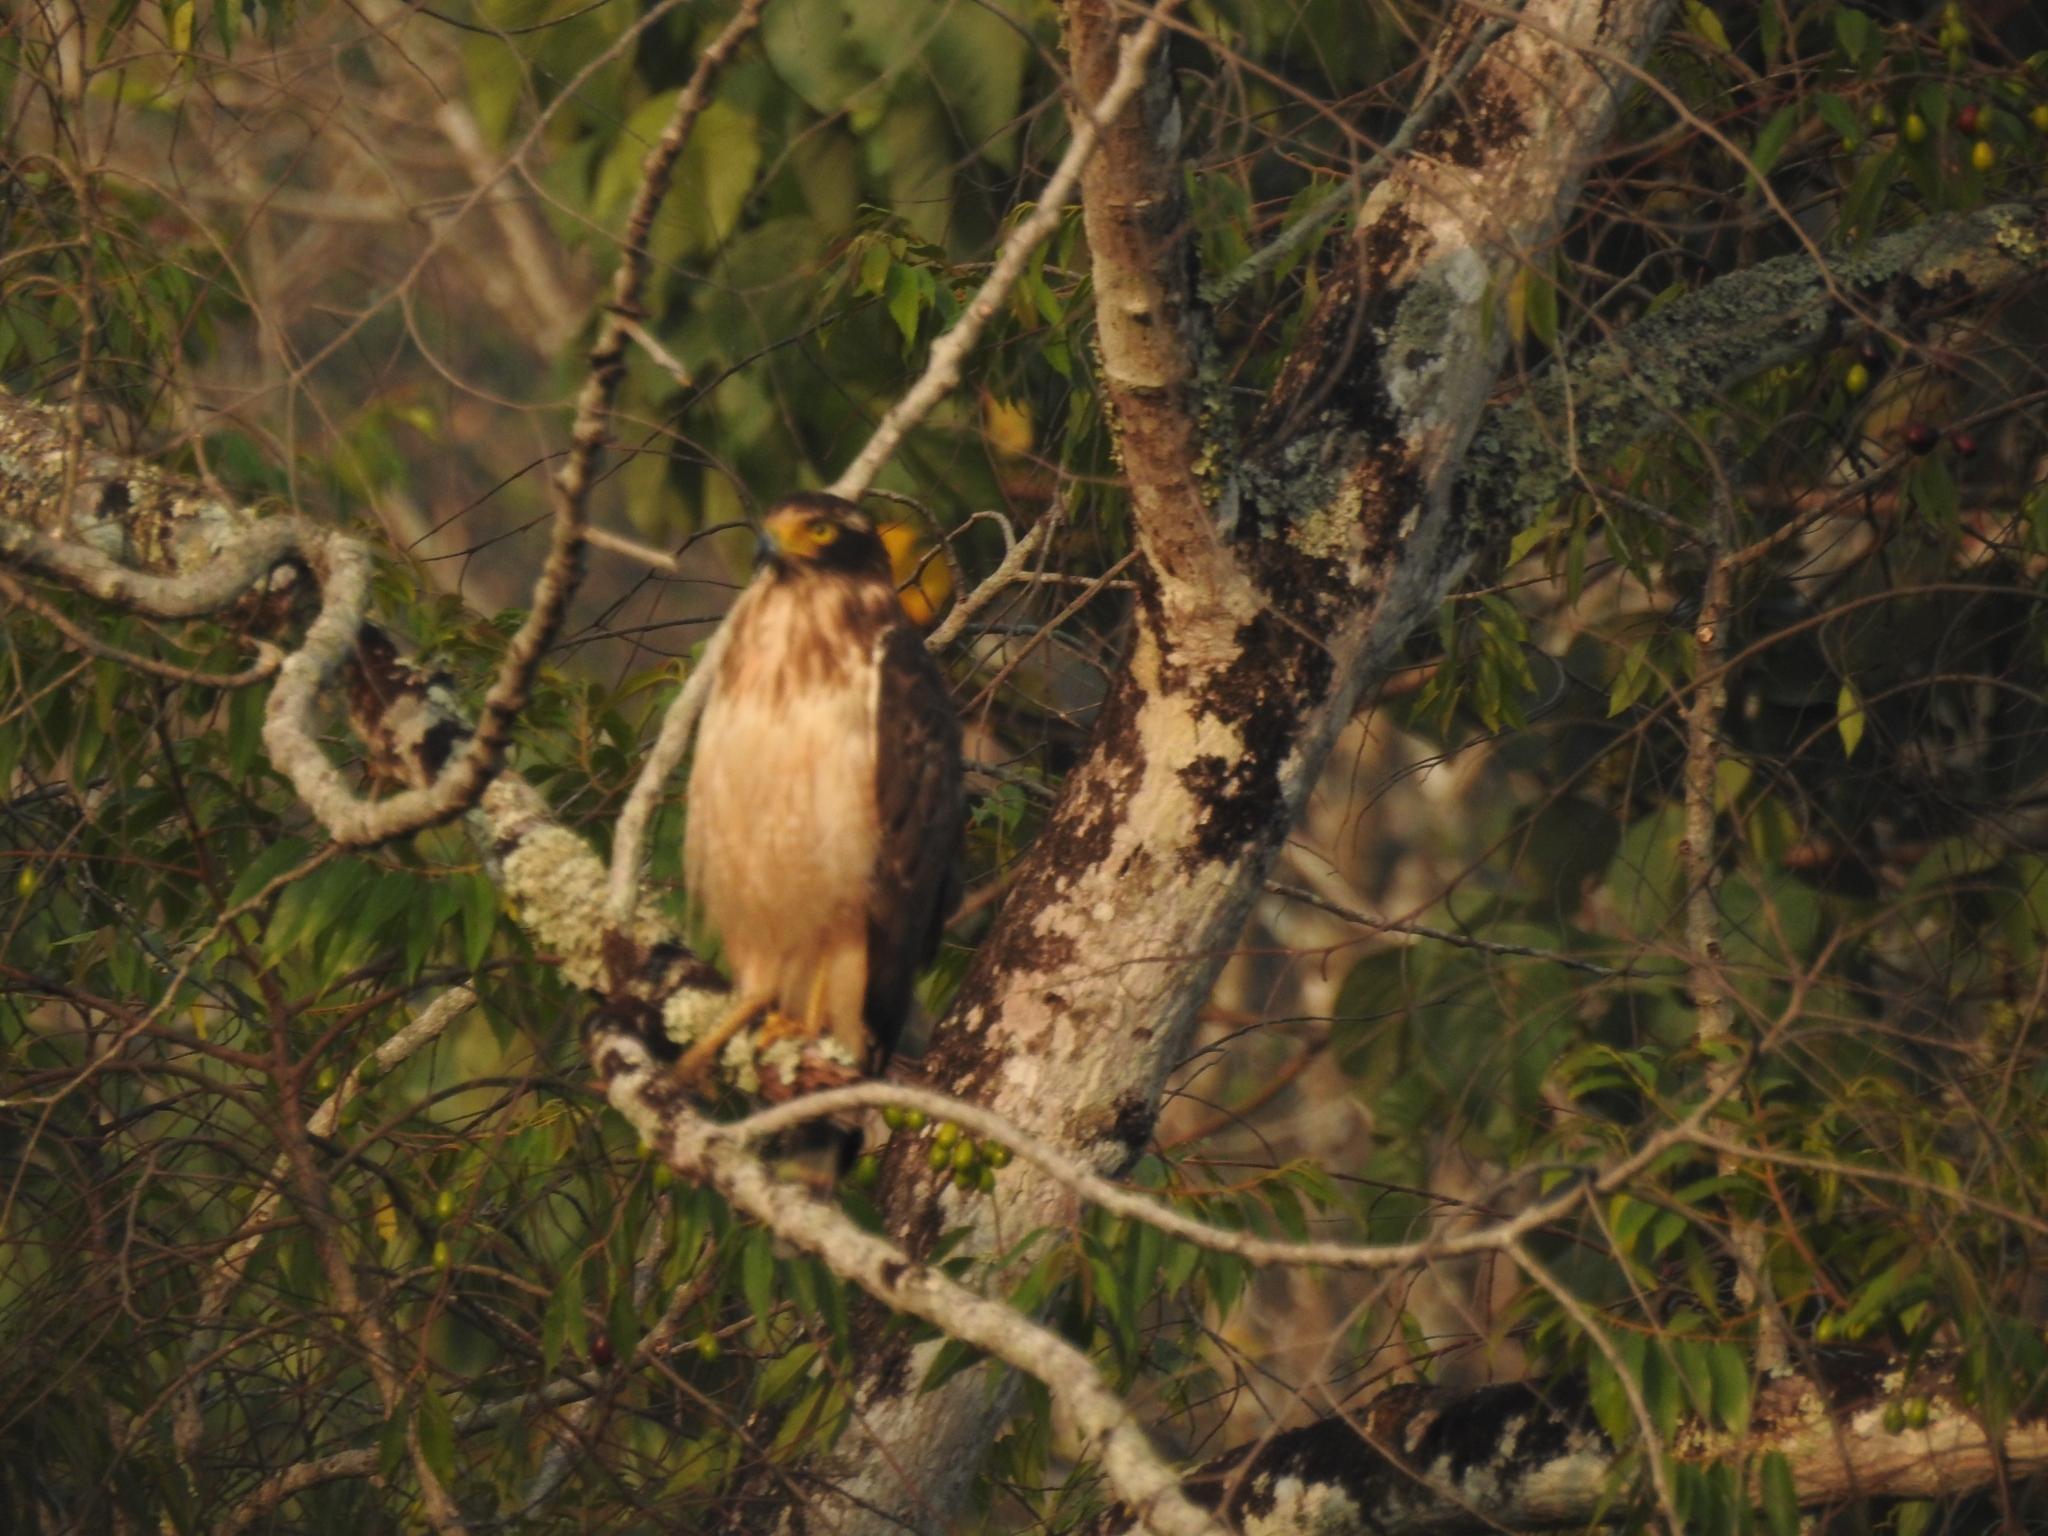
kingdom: Animalia
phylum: Chordata
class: Aves
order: Accipitriformes
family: Accipitridae
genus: Spilornis
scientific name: Spilornis cheela
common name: Crested serpent eagle
